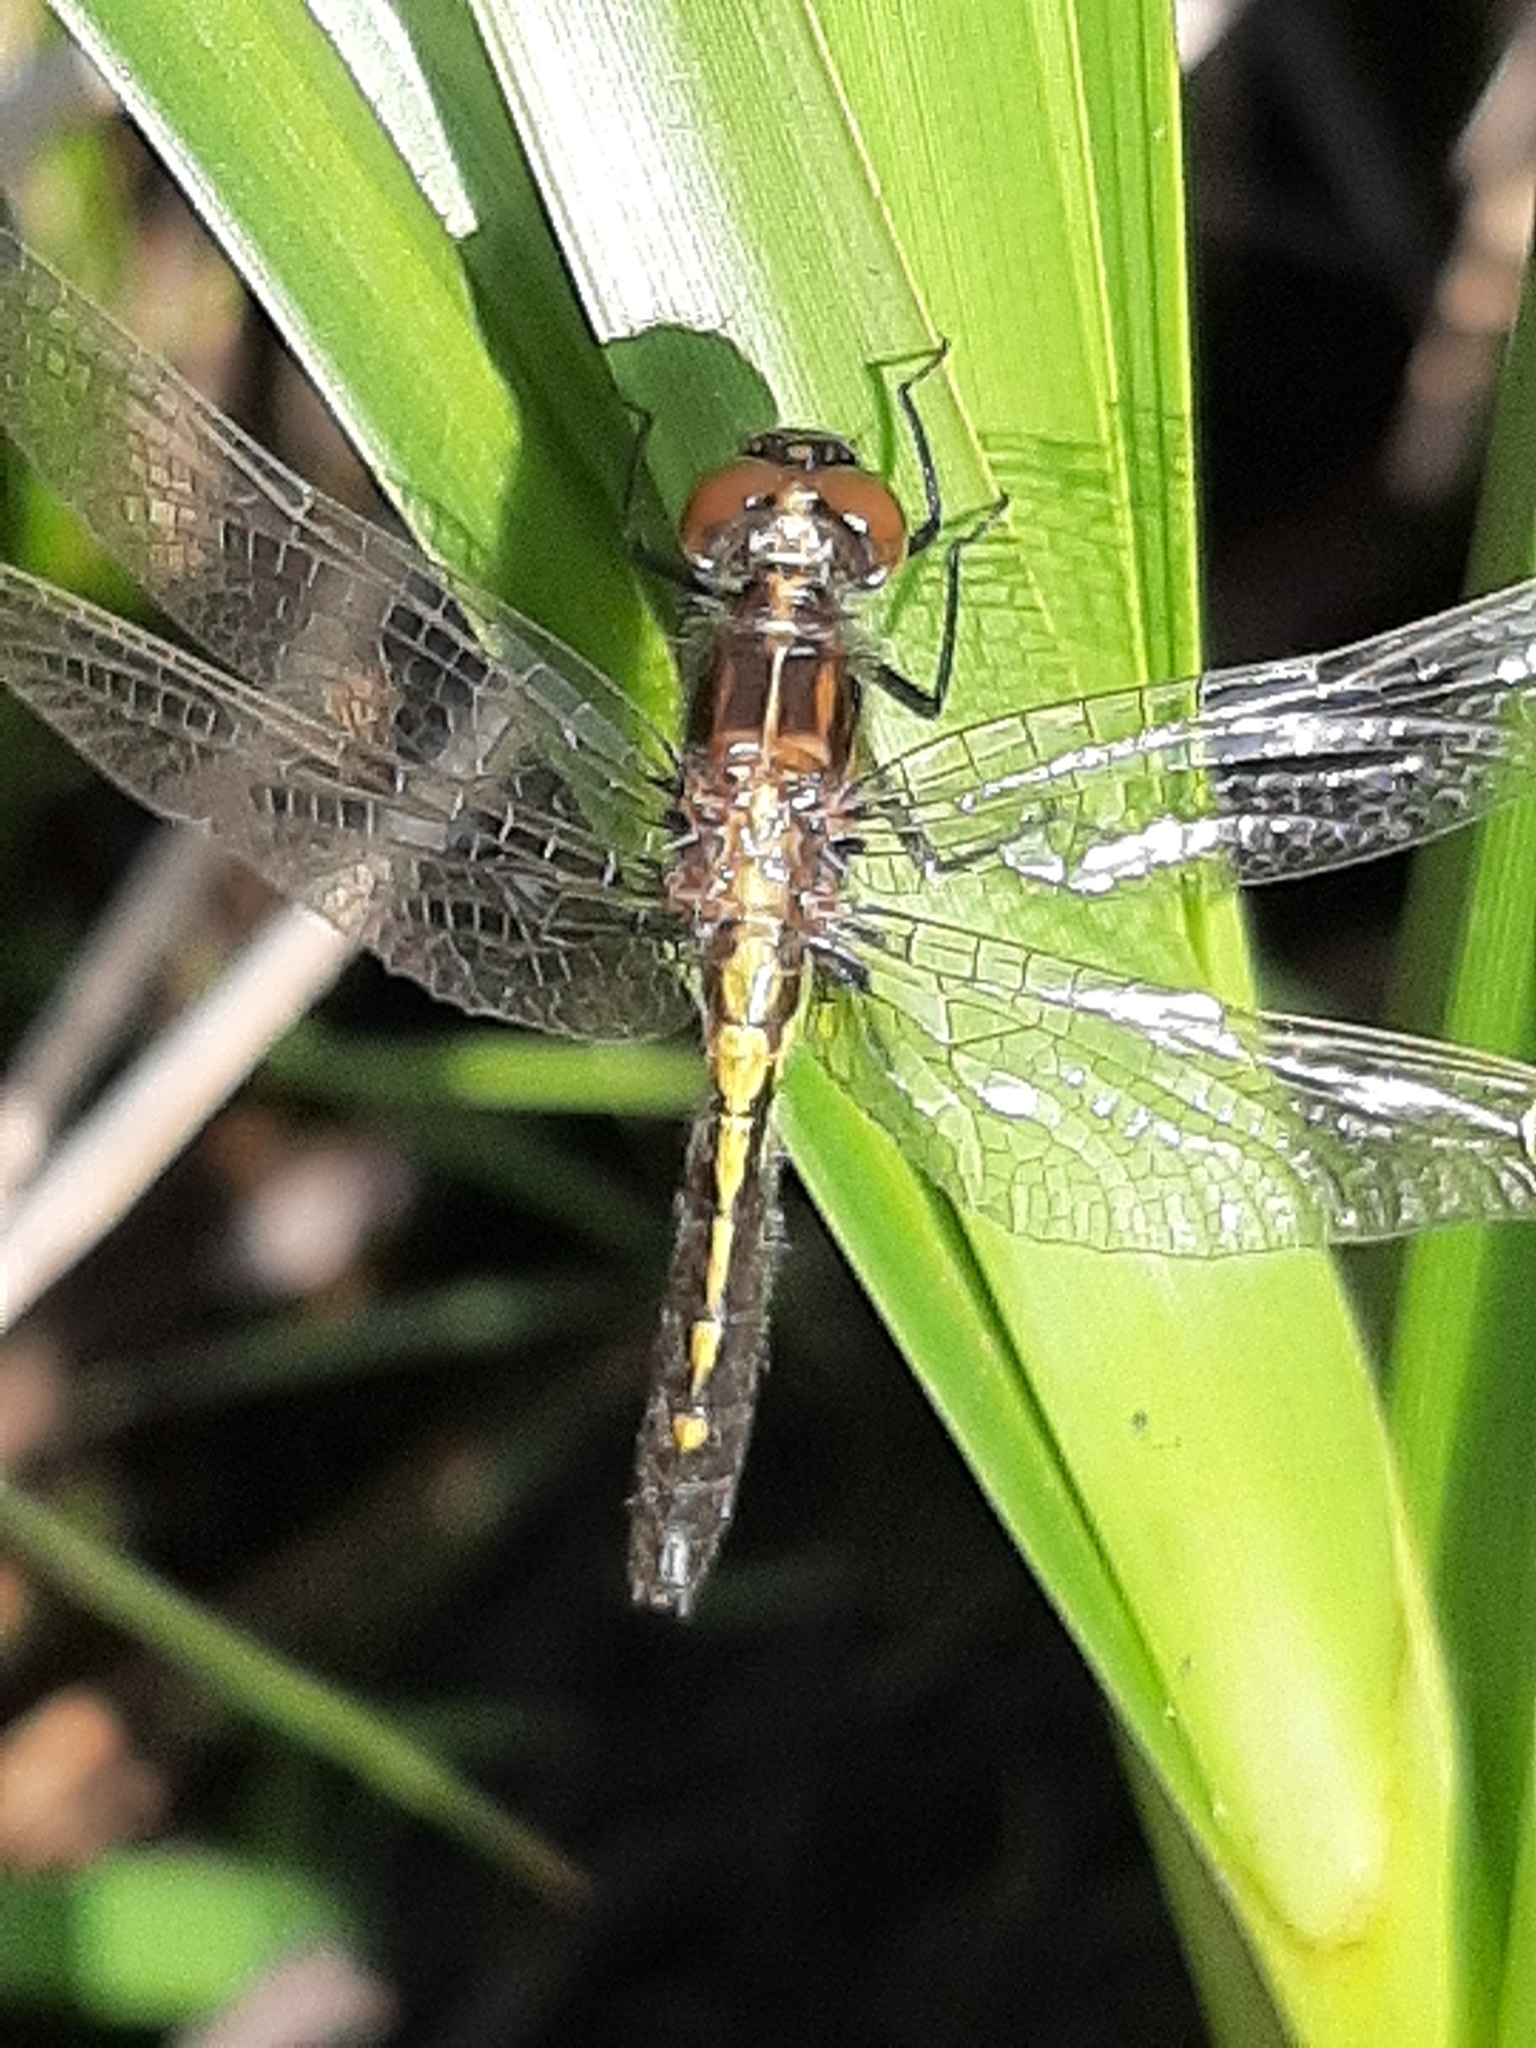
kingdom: Animalia
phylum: Arthropoda
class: Insecta
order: Odonata
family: Libellulidae
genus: Leucorrhinia
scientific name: Leucorrhinia intacta
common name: Dot-tailed whiteface
